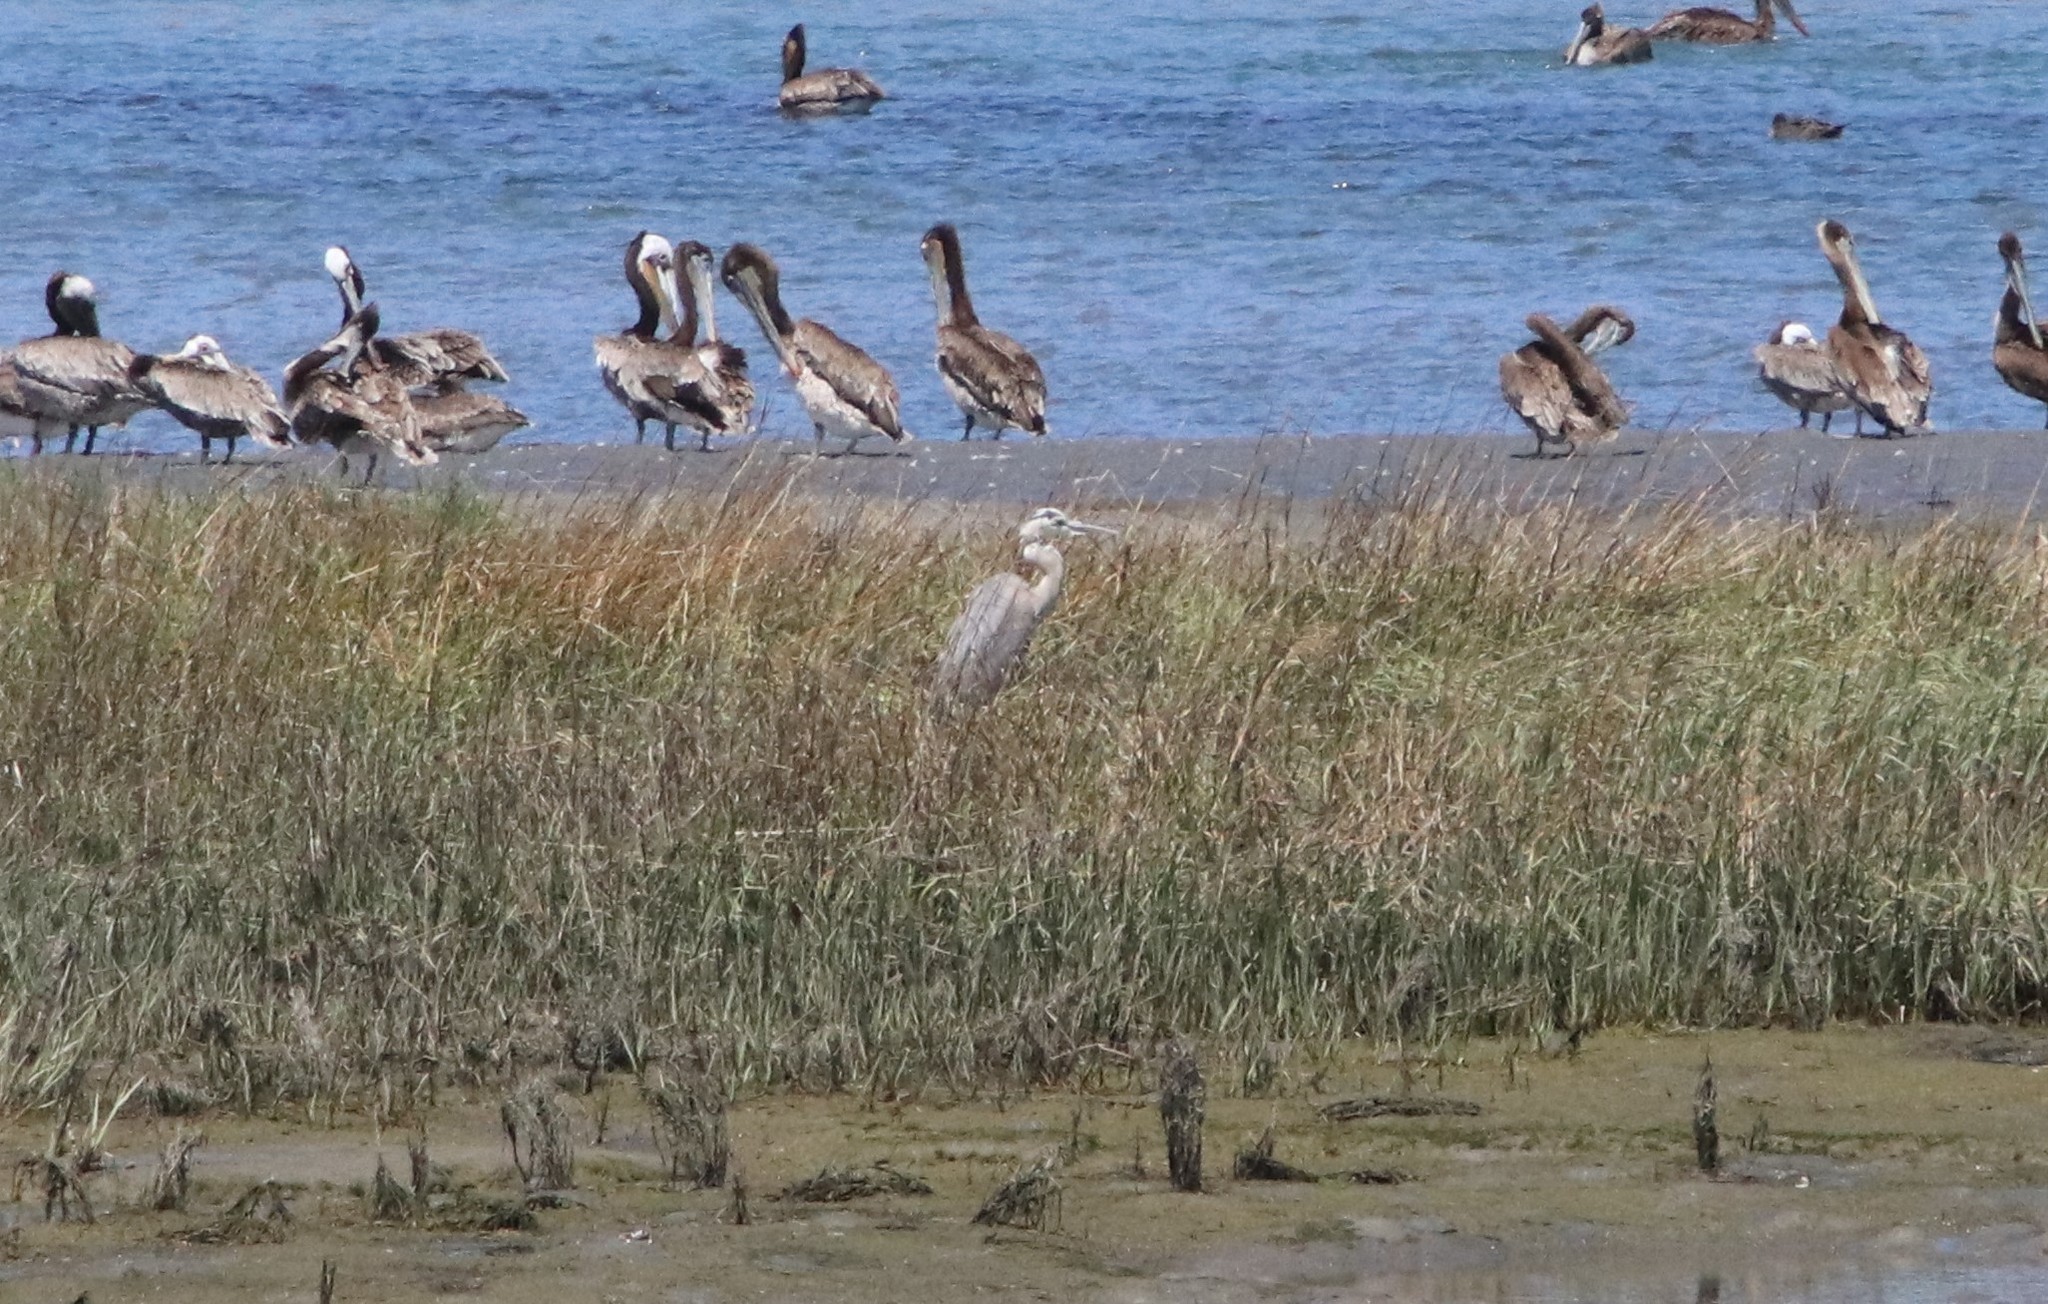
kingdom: Animalia
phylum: Chordata
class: Aves
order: Pelecaniformes
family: Ardeidae
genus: Ardea
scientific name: Ardea herodias
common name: Great blue heron
